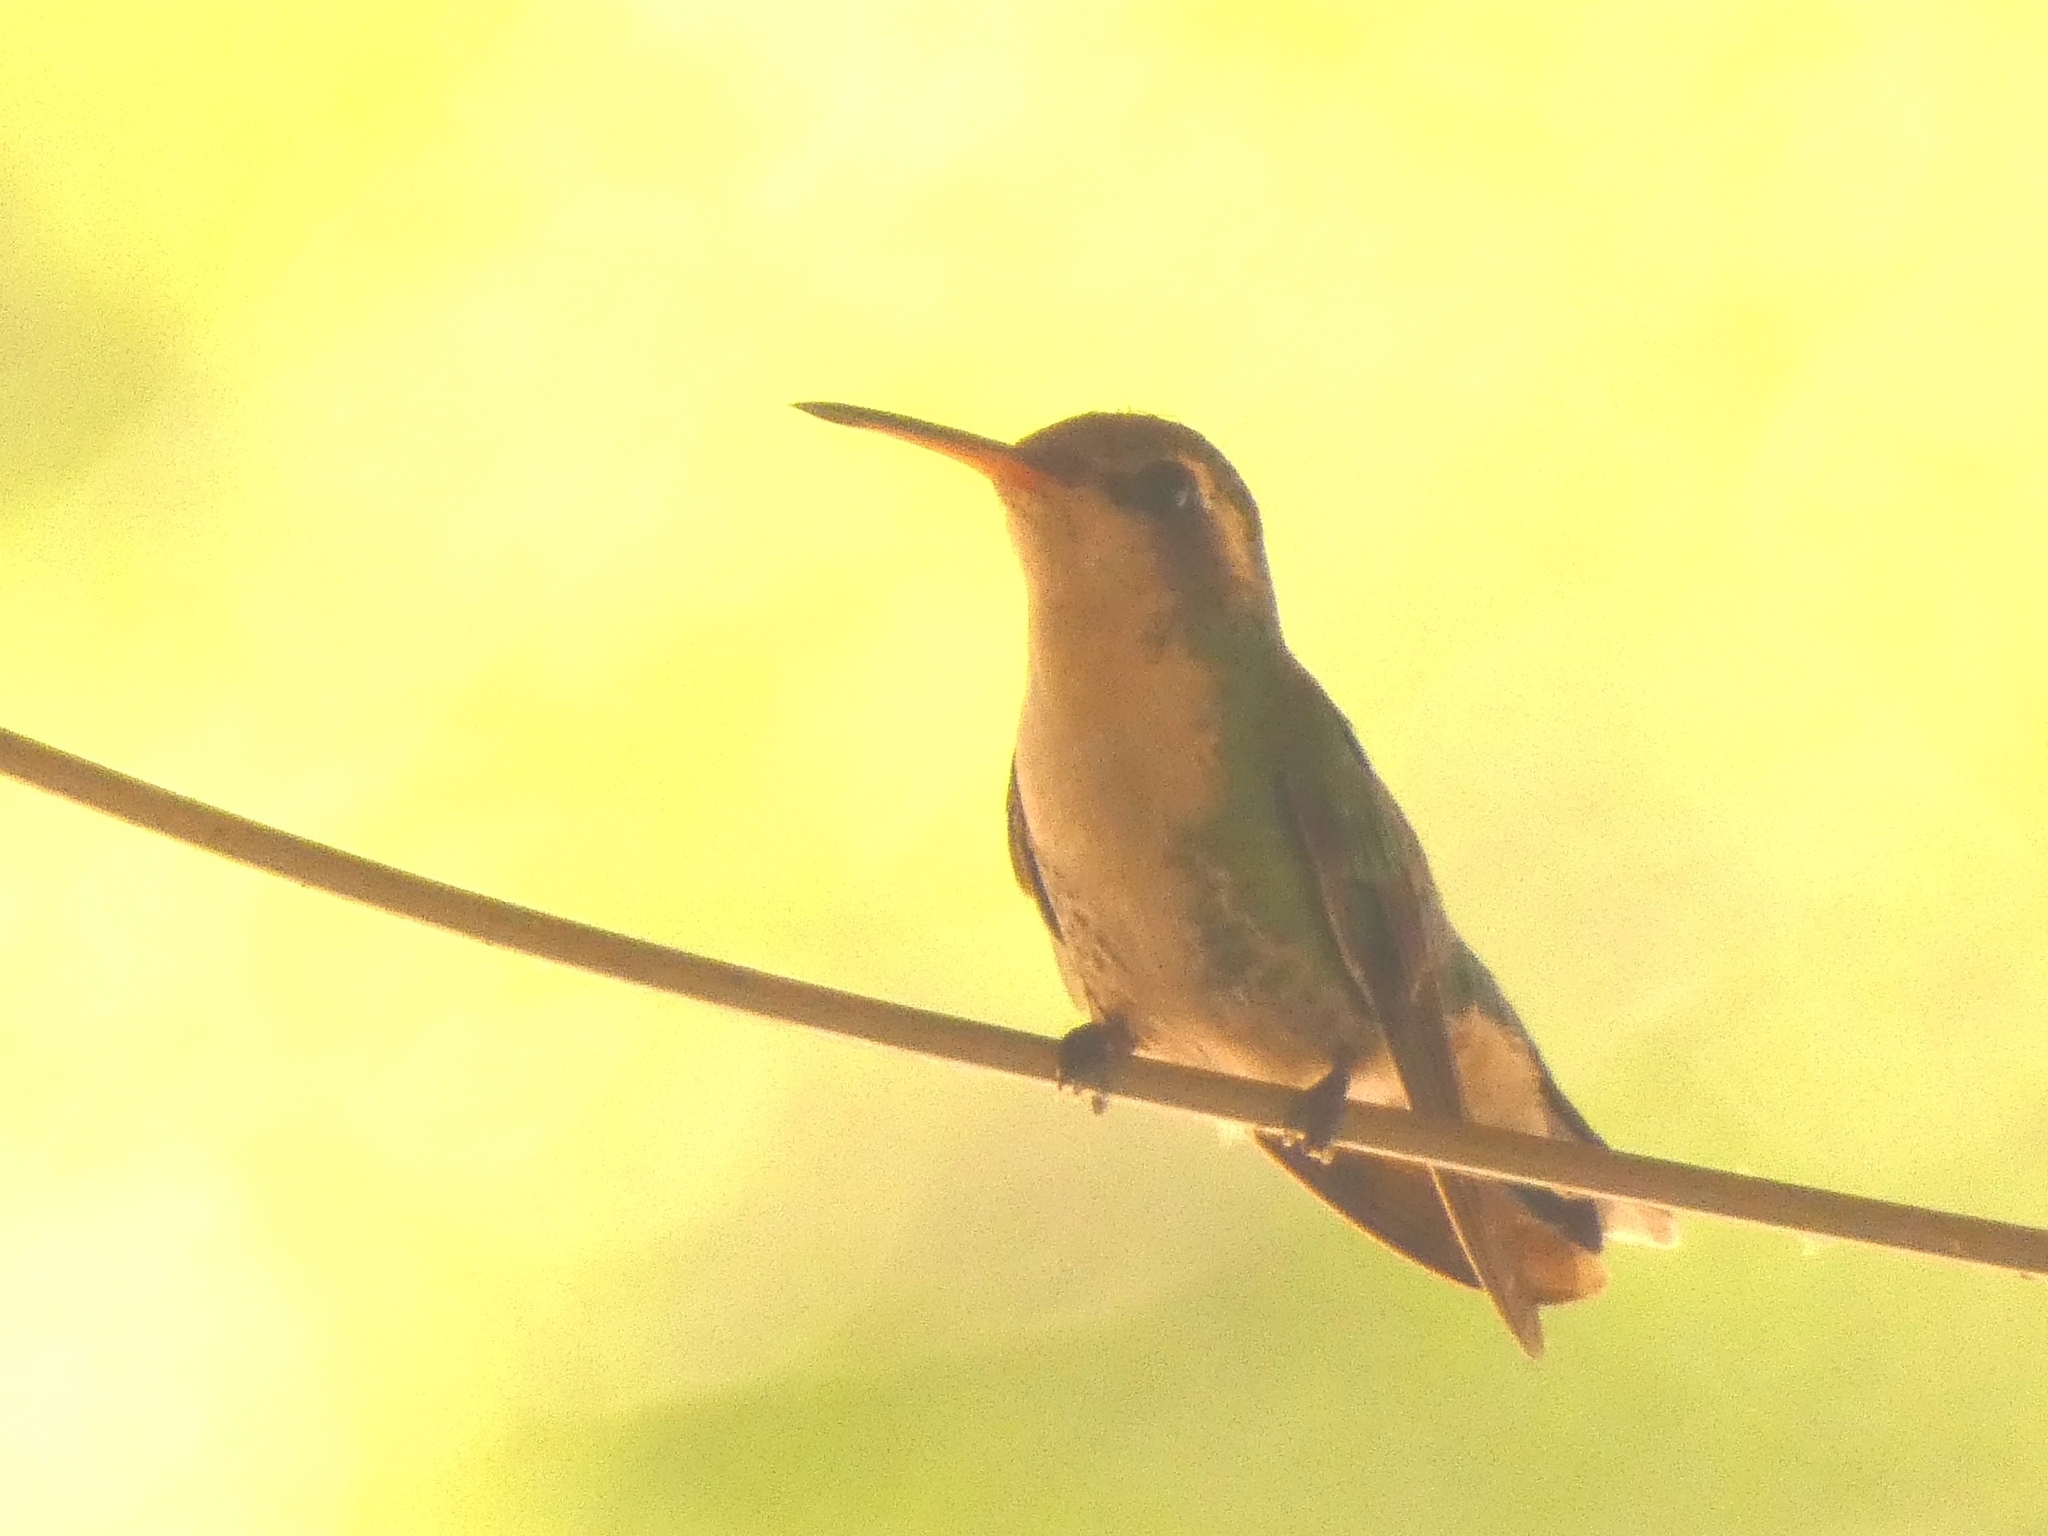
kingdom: Animalia
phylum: Chordata
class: Aves
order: Apodiformes
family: Trochilidae
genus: Chlorostilbon
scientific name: Chlorostilbon lucidus
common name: Glittering-bellied emerald
